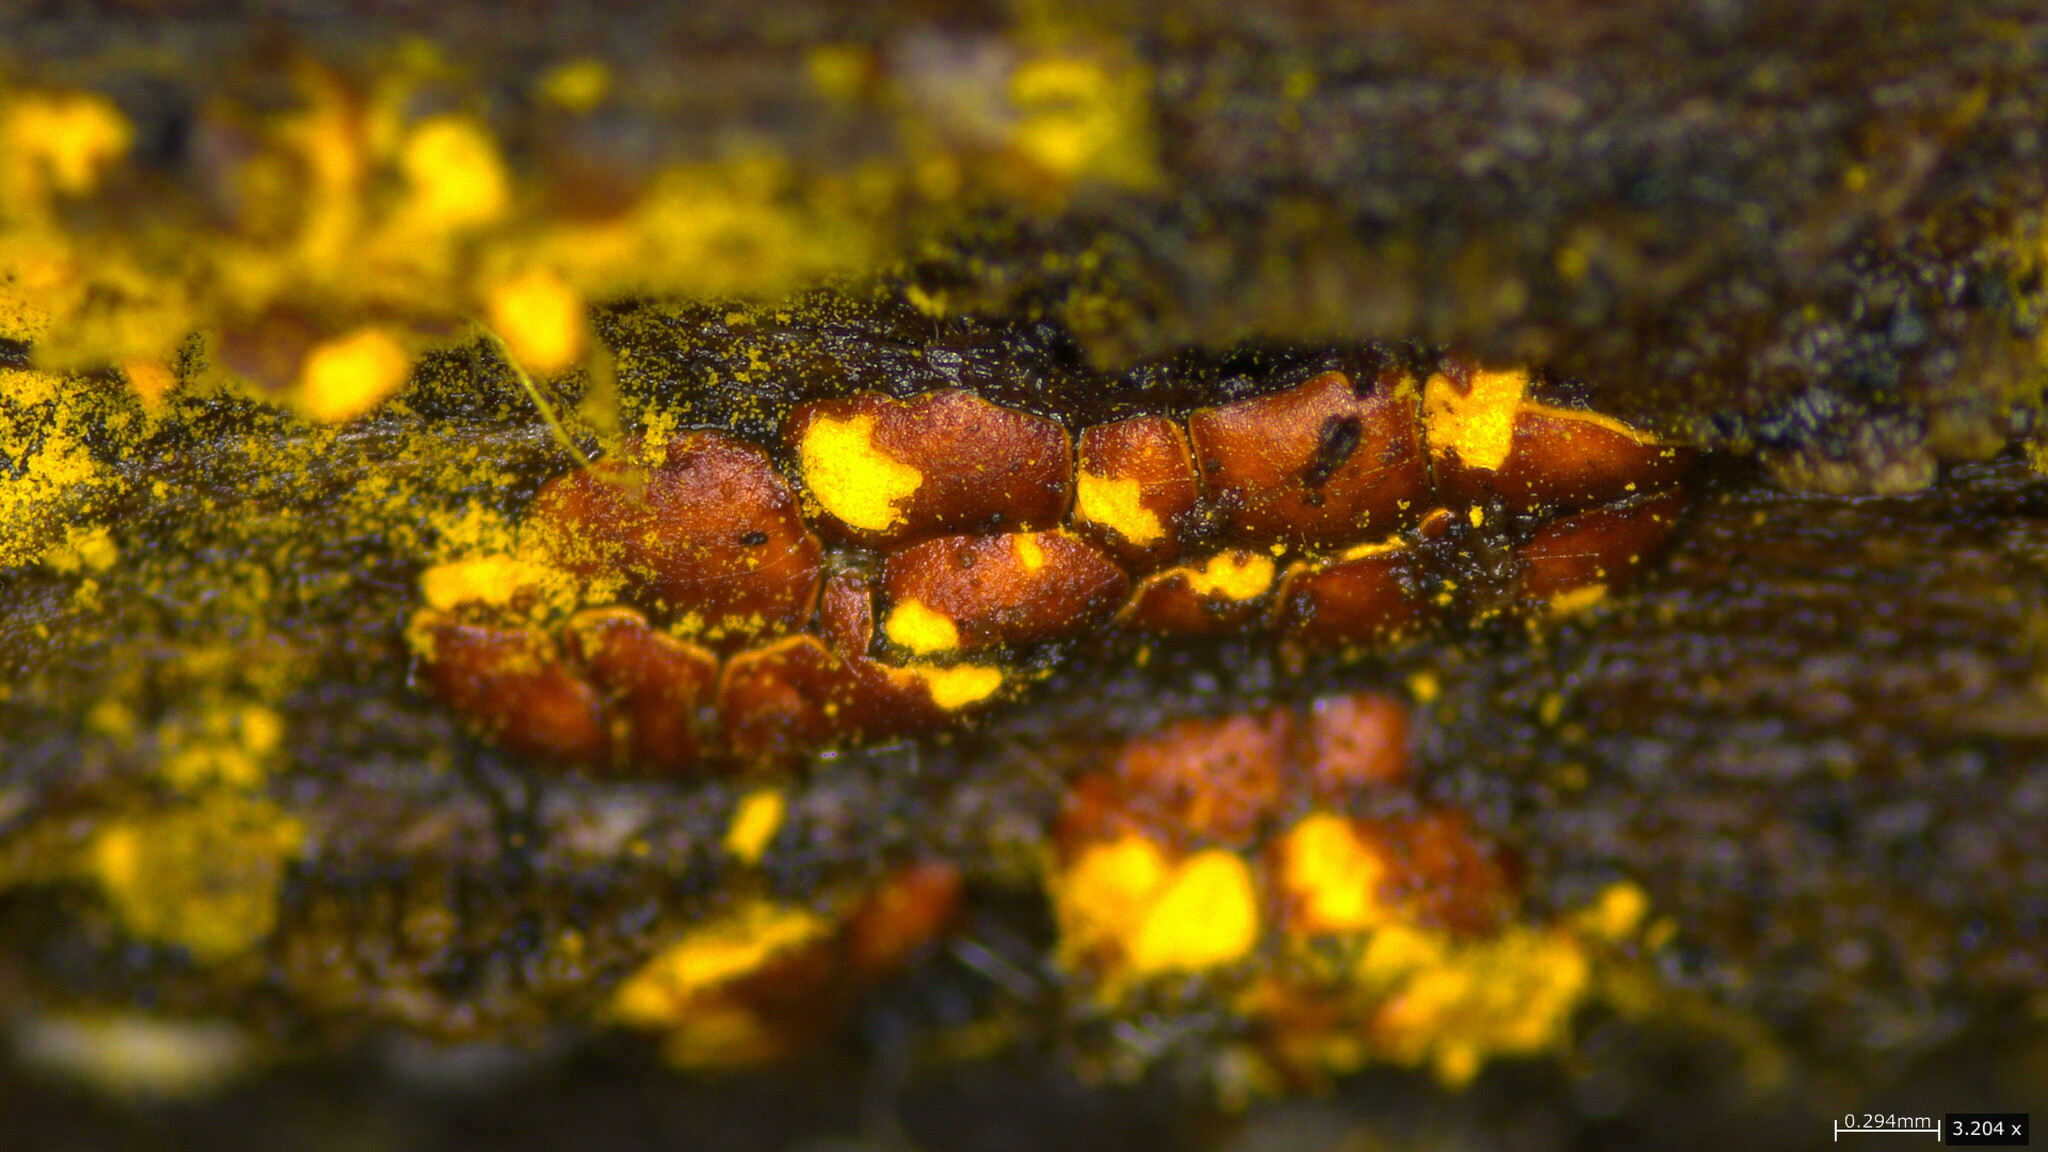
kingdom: Protozoa
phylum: Mycetozoa
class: Myxomycetes
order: Trichiales
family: Trichiaceae
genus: Perichaena
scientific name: Perichaena depressa
